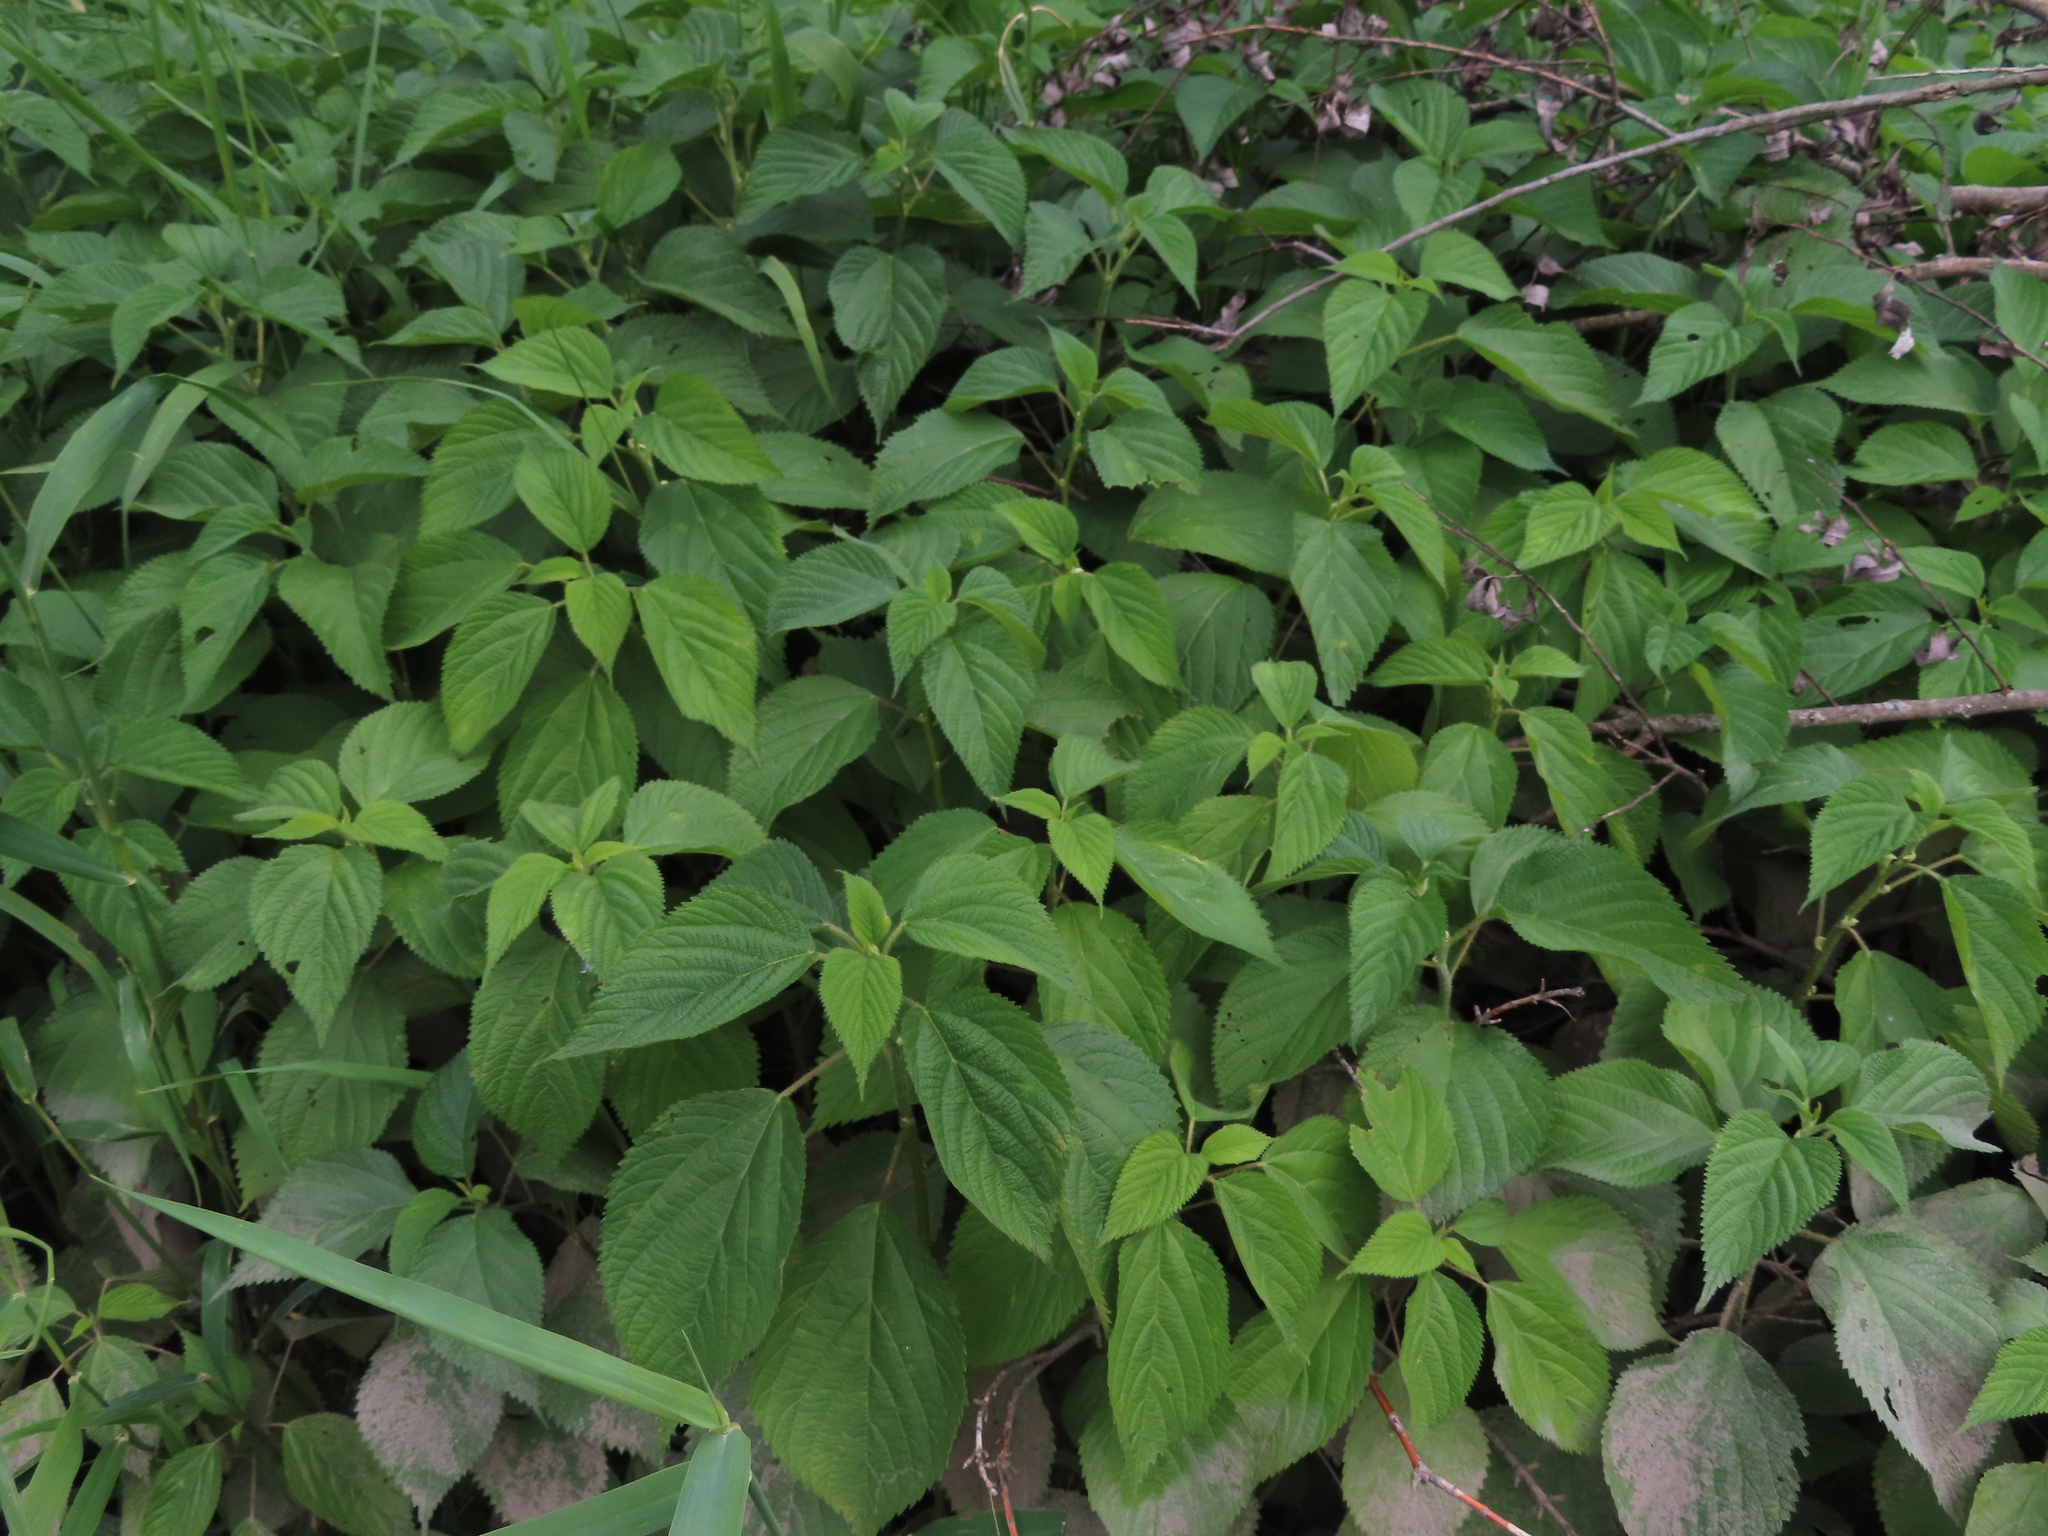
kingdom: Plantae
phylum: Tracheophyta
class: Magnoliopsida
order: Rosales
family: Urticaceae
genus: Laportea
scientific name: Laportea canadensis
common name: Canada nettle
